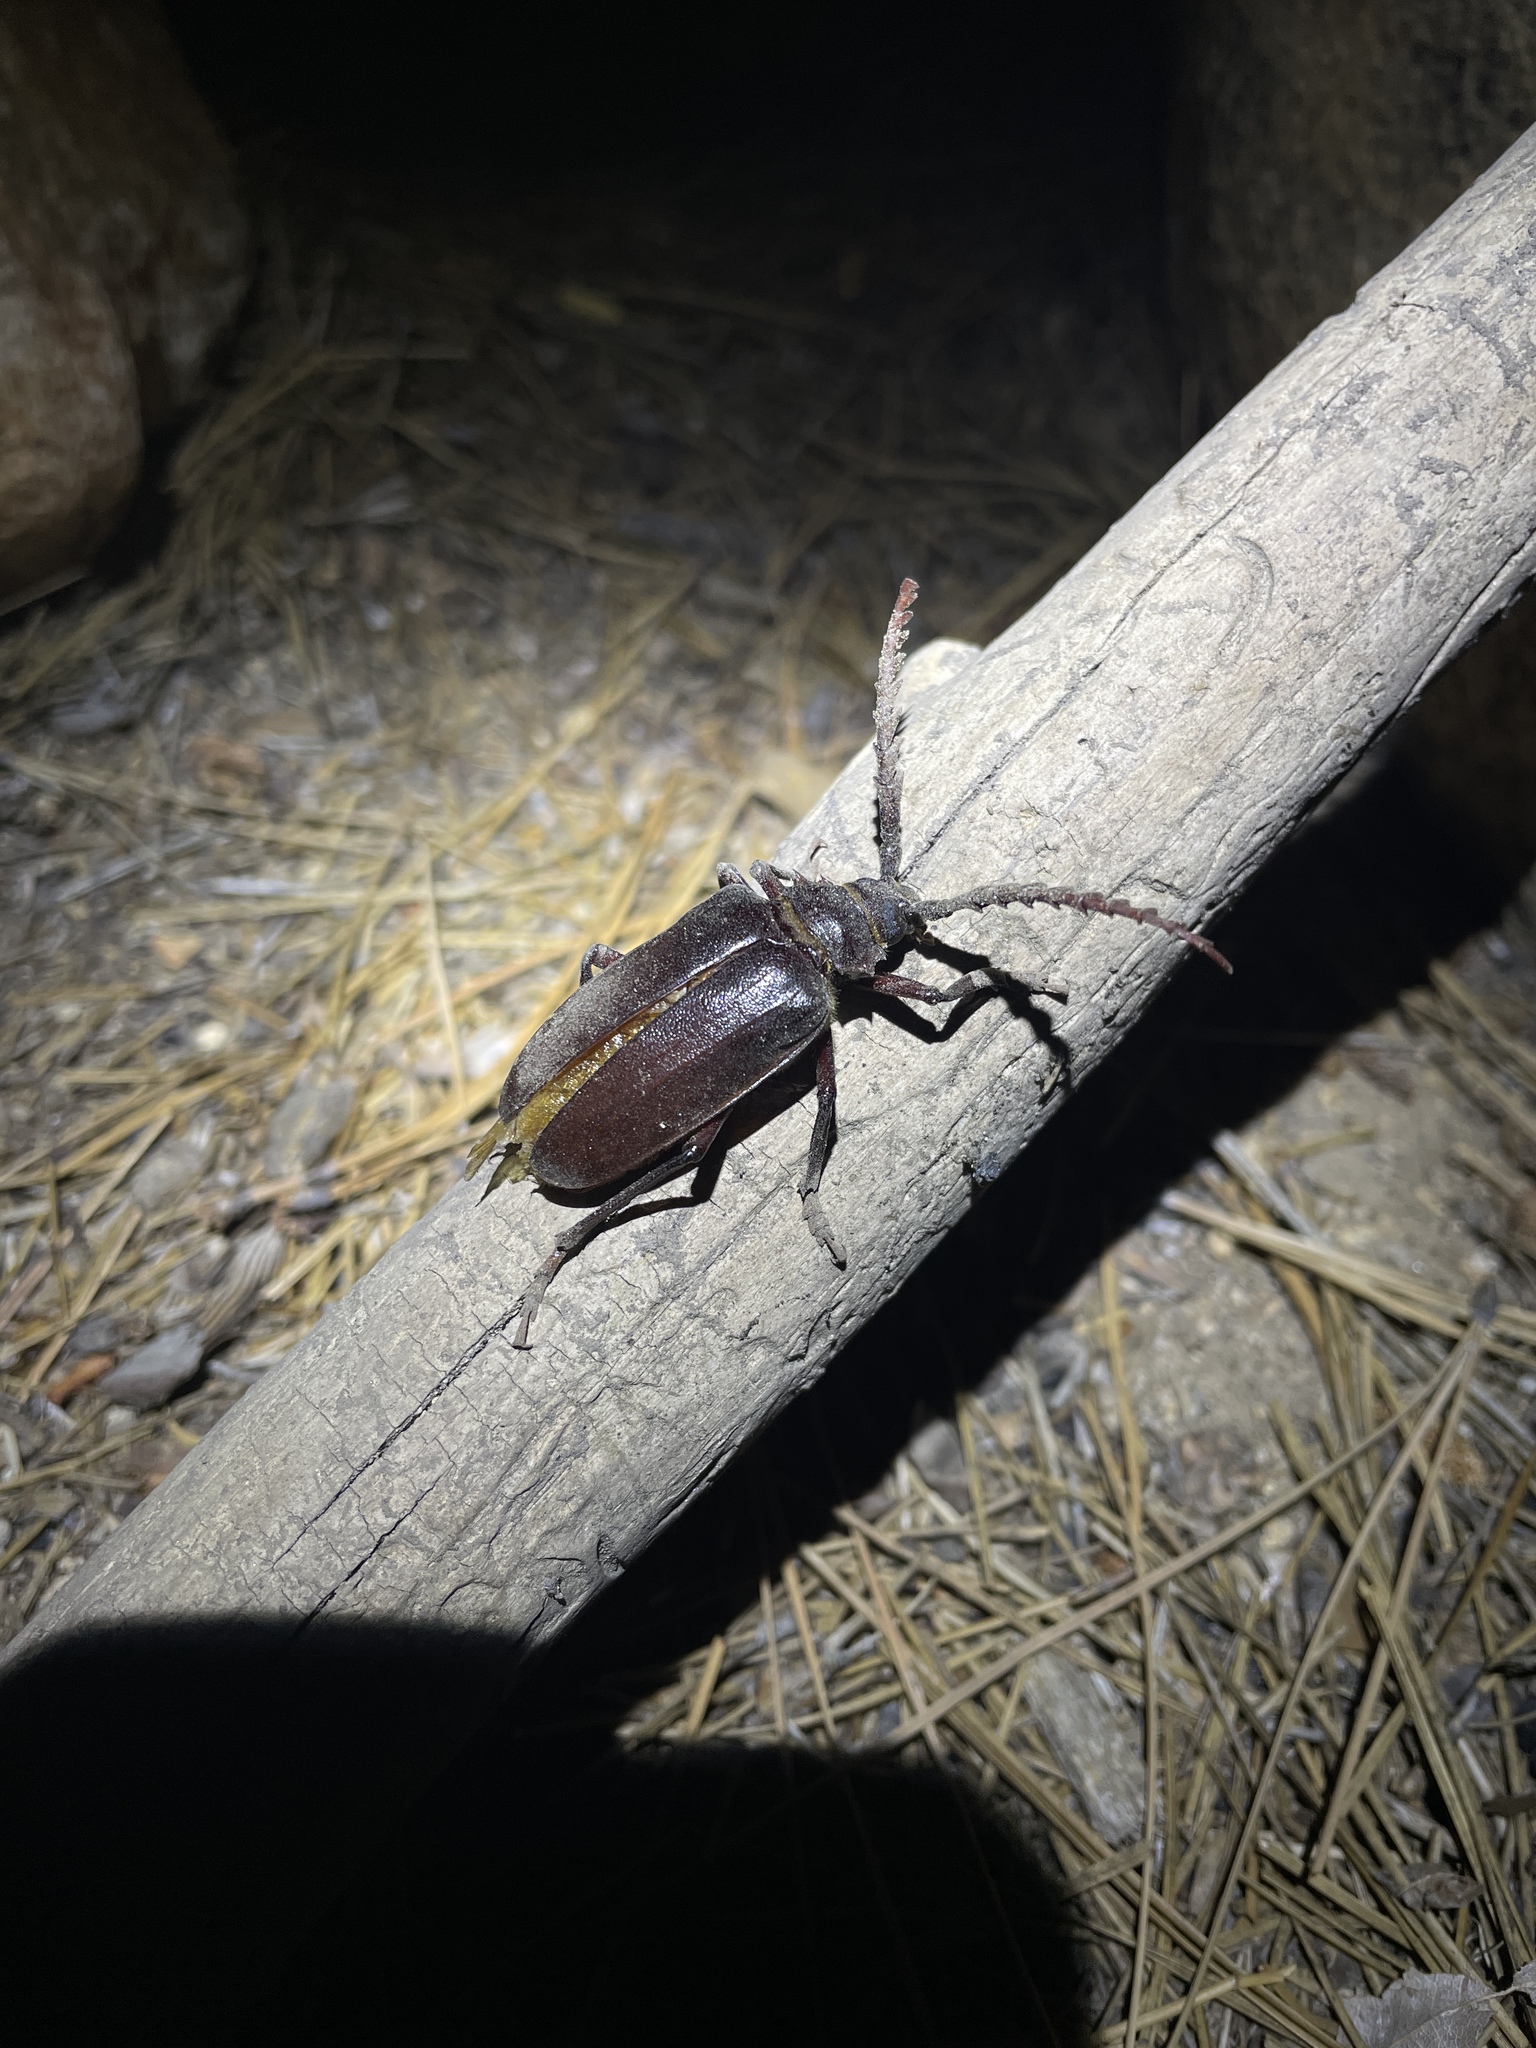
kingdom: Animalia
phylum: Arthropoda
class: Insecta
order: Coleoptera
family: Cerambycidae
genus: Prionus
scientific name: Prionus californicus
